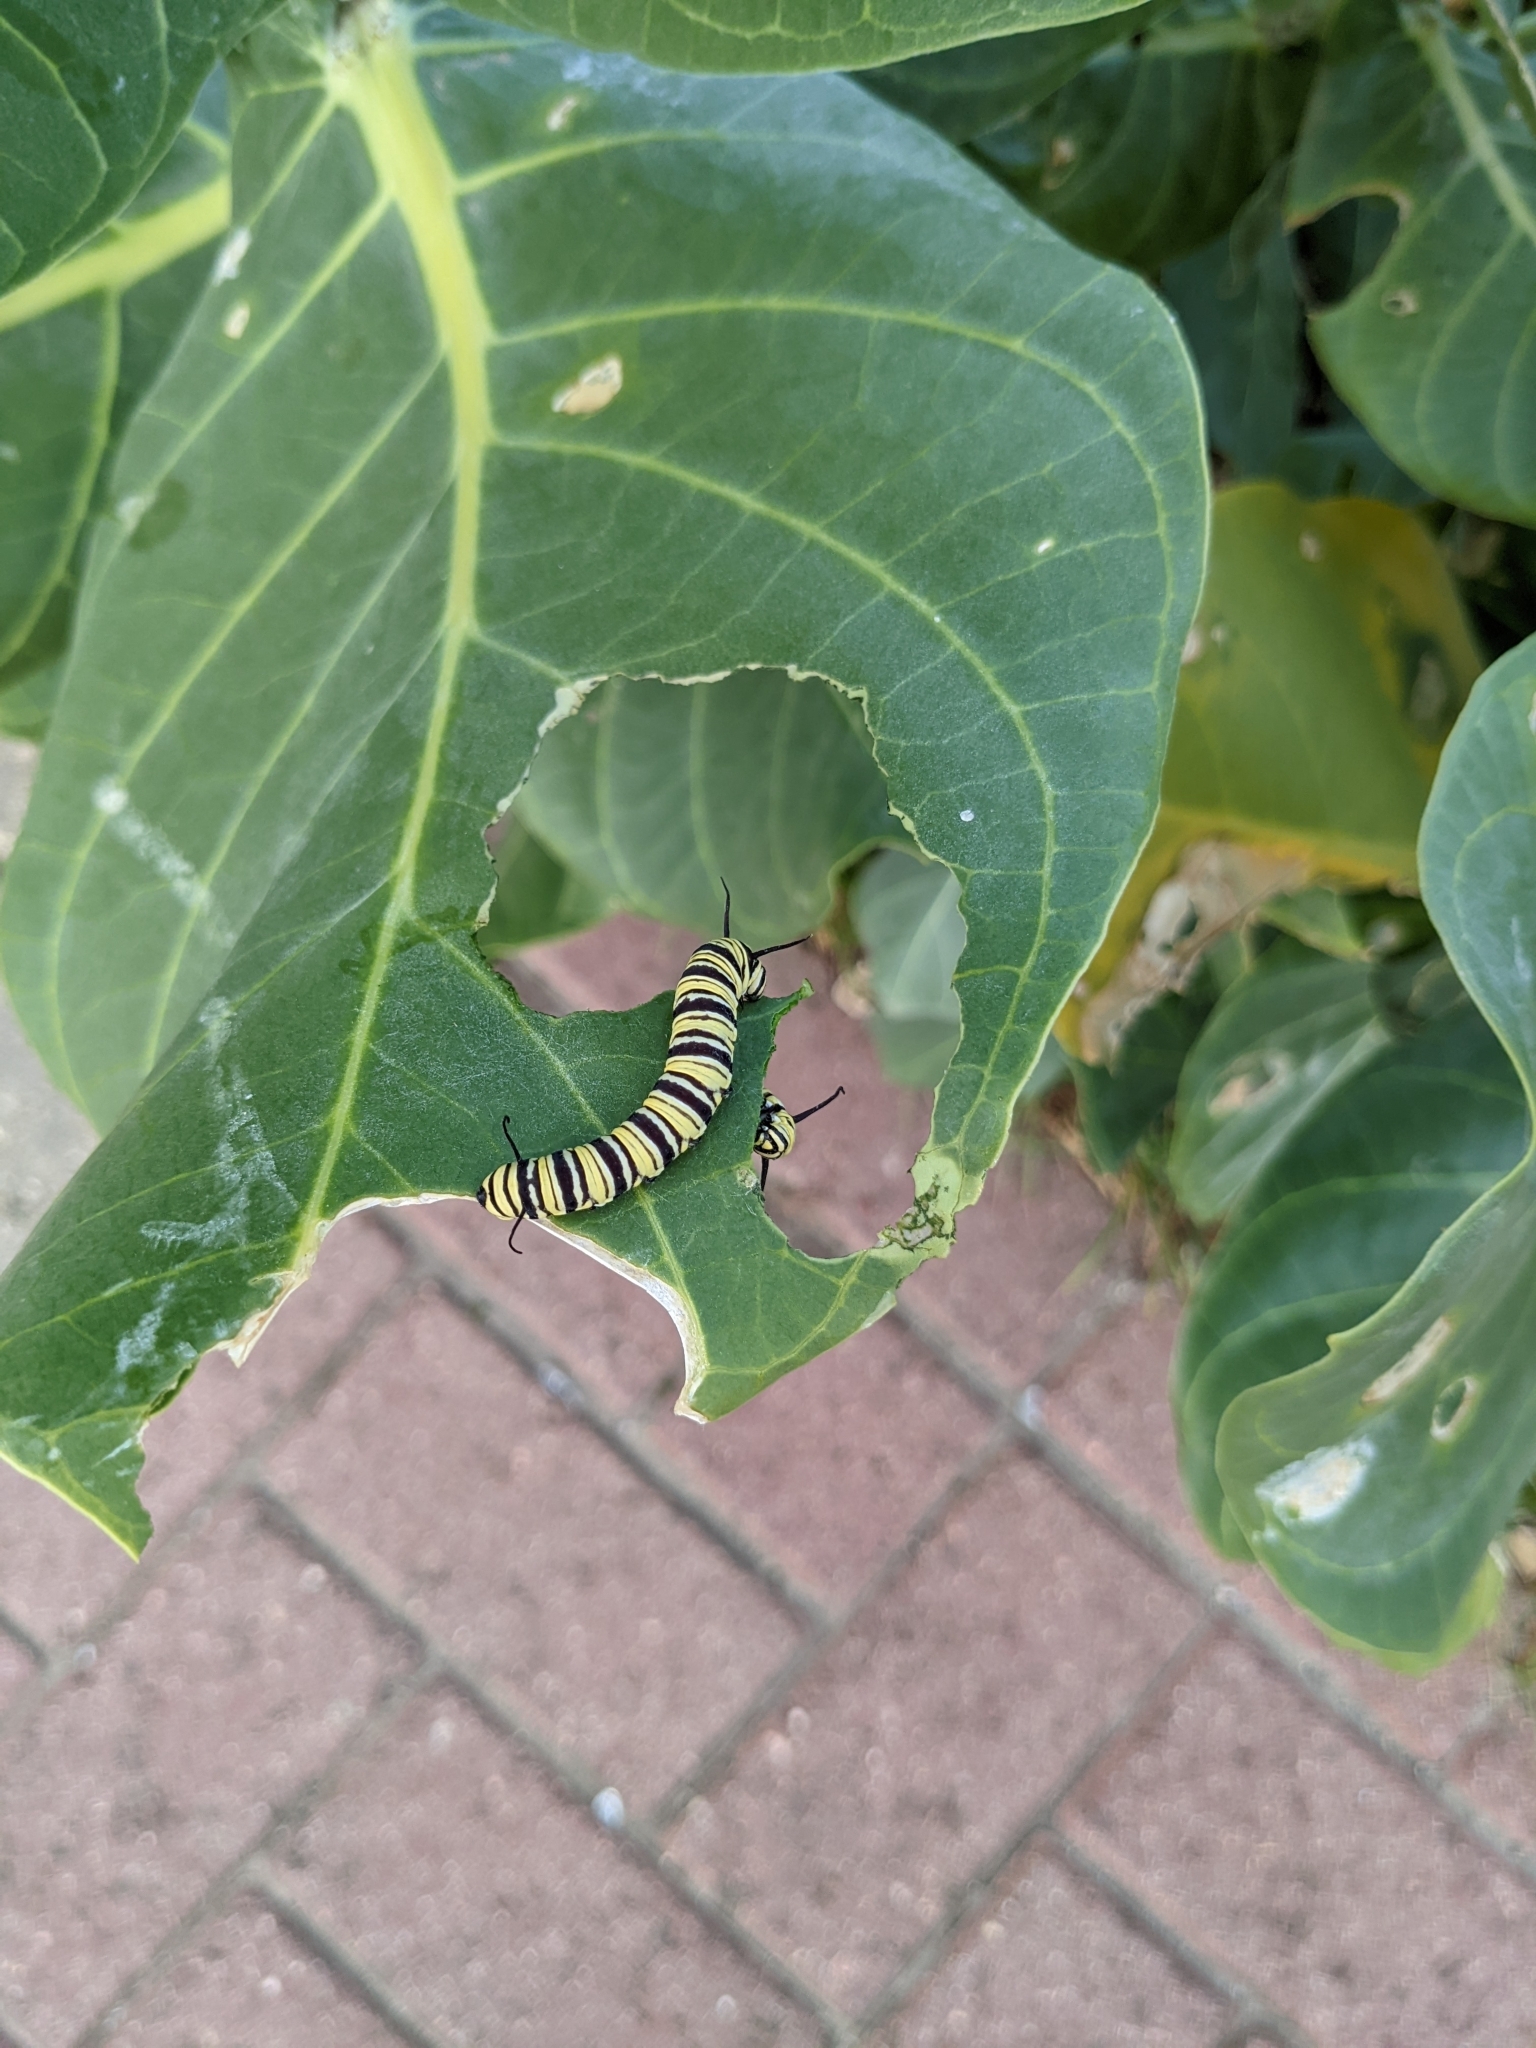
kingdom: Plantae
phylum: Tracheophyta
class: Magnoliopsida
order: Gentianales
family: Apocynaceae
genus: Calotropis
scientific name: Calotropis procera
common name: Roostertree
